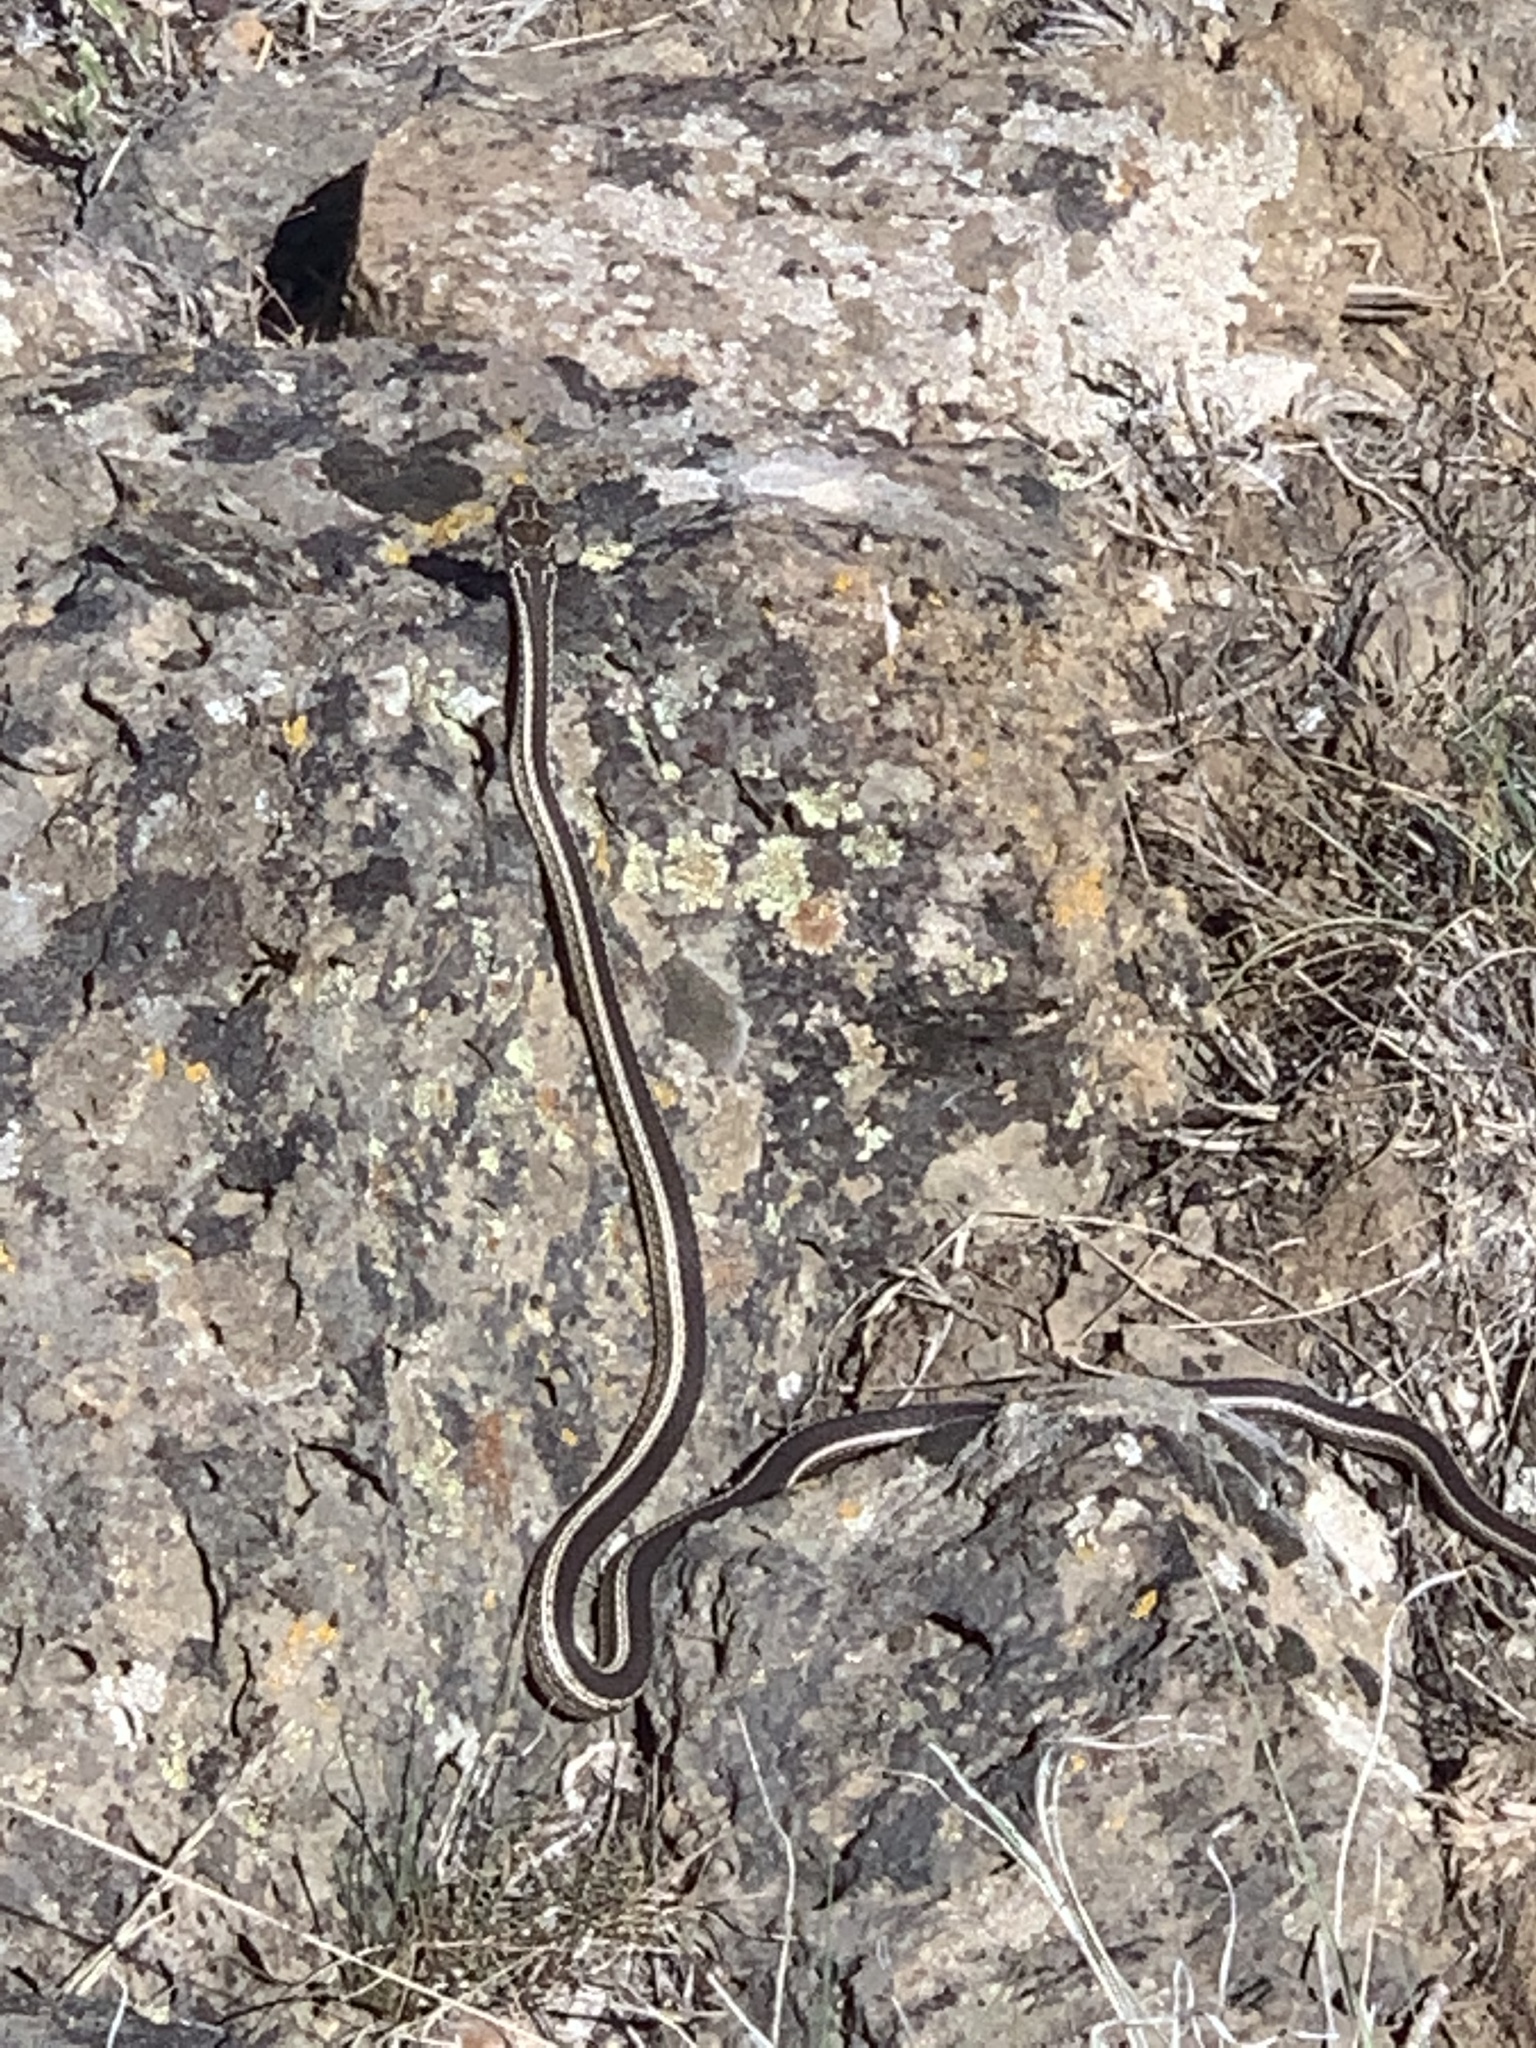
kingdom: Animalia
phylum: Chordata
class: Squamata
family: Colubridae
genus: Masticophis
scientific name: Masticophis taeniatus
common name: Striped whipsnake
